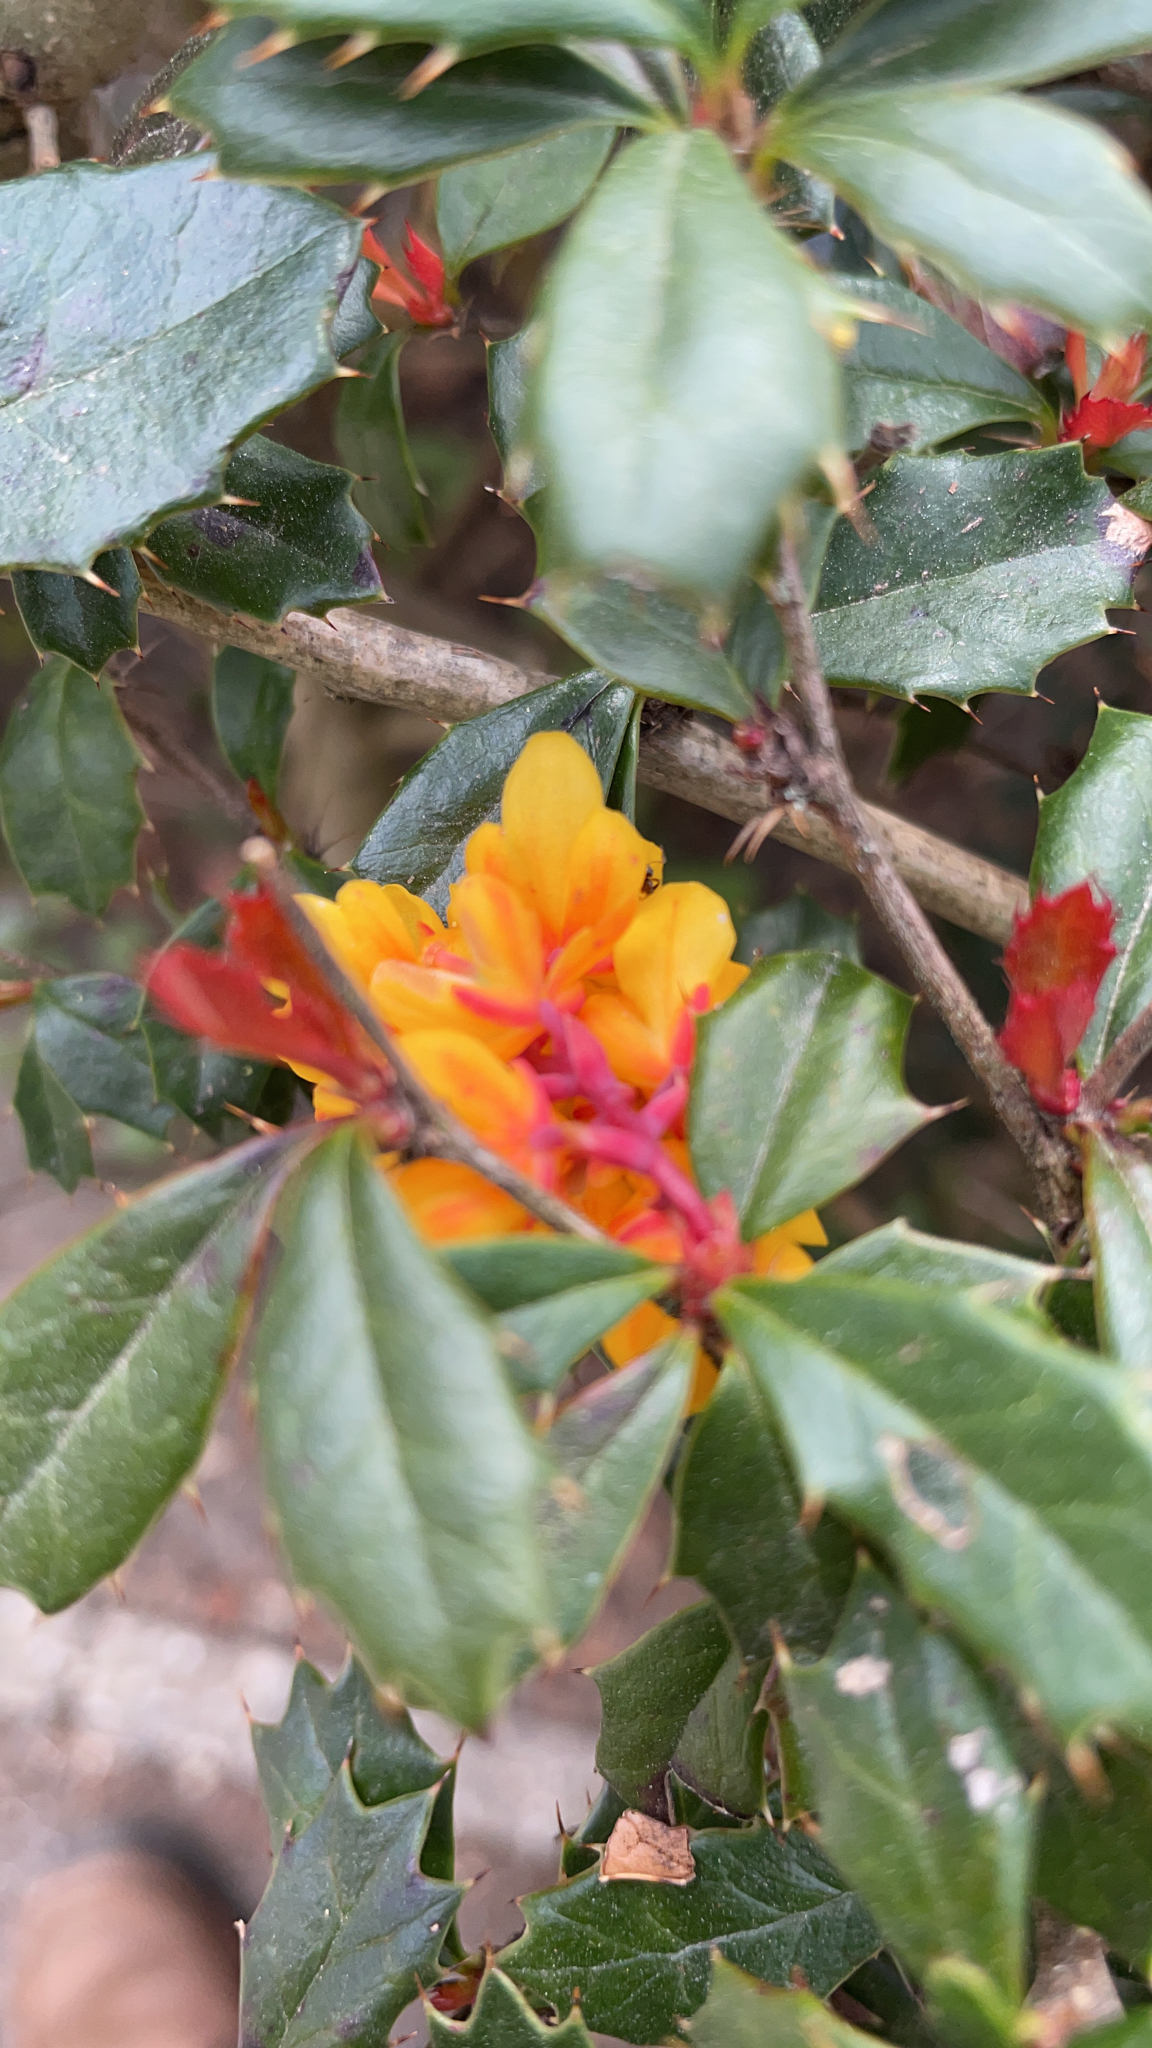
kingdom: Plantae
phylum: Tracheophyta
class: Magnoliopsida
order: Ranunculales
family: Berberidaceae
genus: Berberis
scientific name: Berberis darwinii
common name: Darwin's barberry
